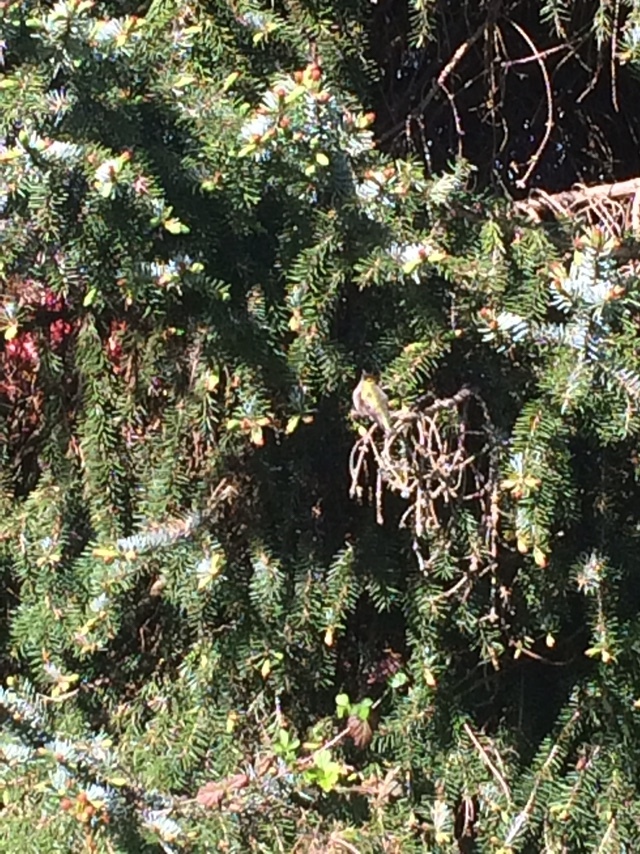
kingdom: Animalia
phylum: Chordata
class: Aves
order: Apodiformes
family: Trochilidae
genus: Calypte
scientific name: Calypte anna
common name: Anna's hummingbird
